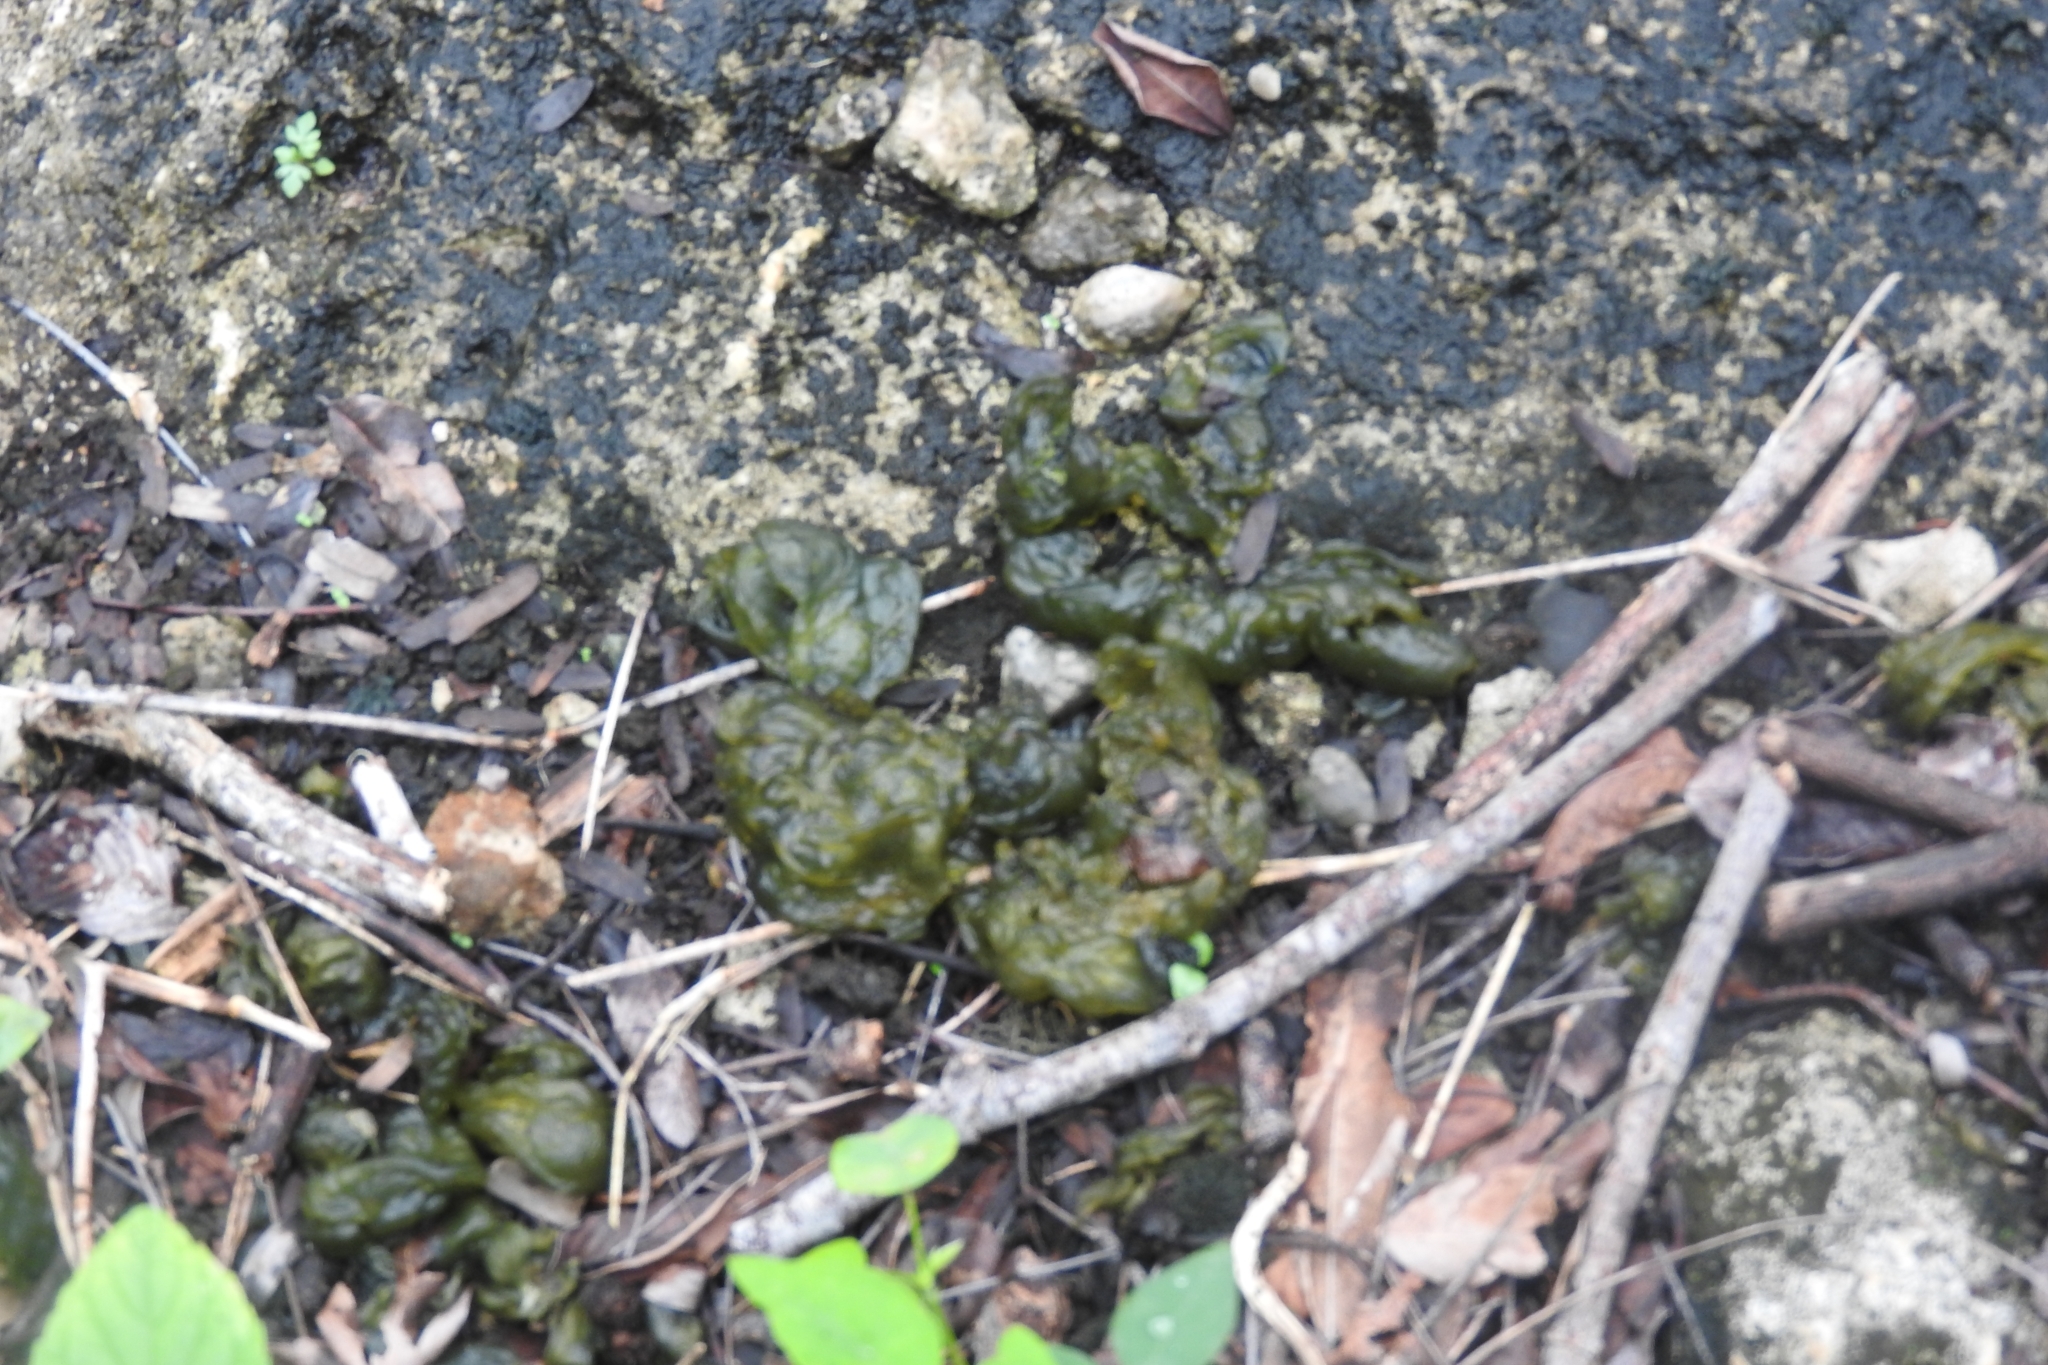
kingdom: Bacteria
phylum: Cyanobacteria
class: Cyanobacteriia
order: Cyanobacteriales
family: Nostocaceae
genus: Nostoc
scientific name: Nostoc commune
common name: Star jelly
